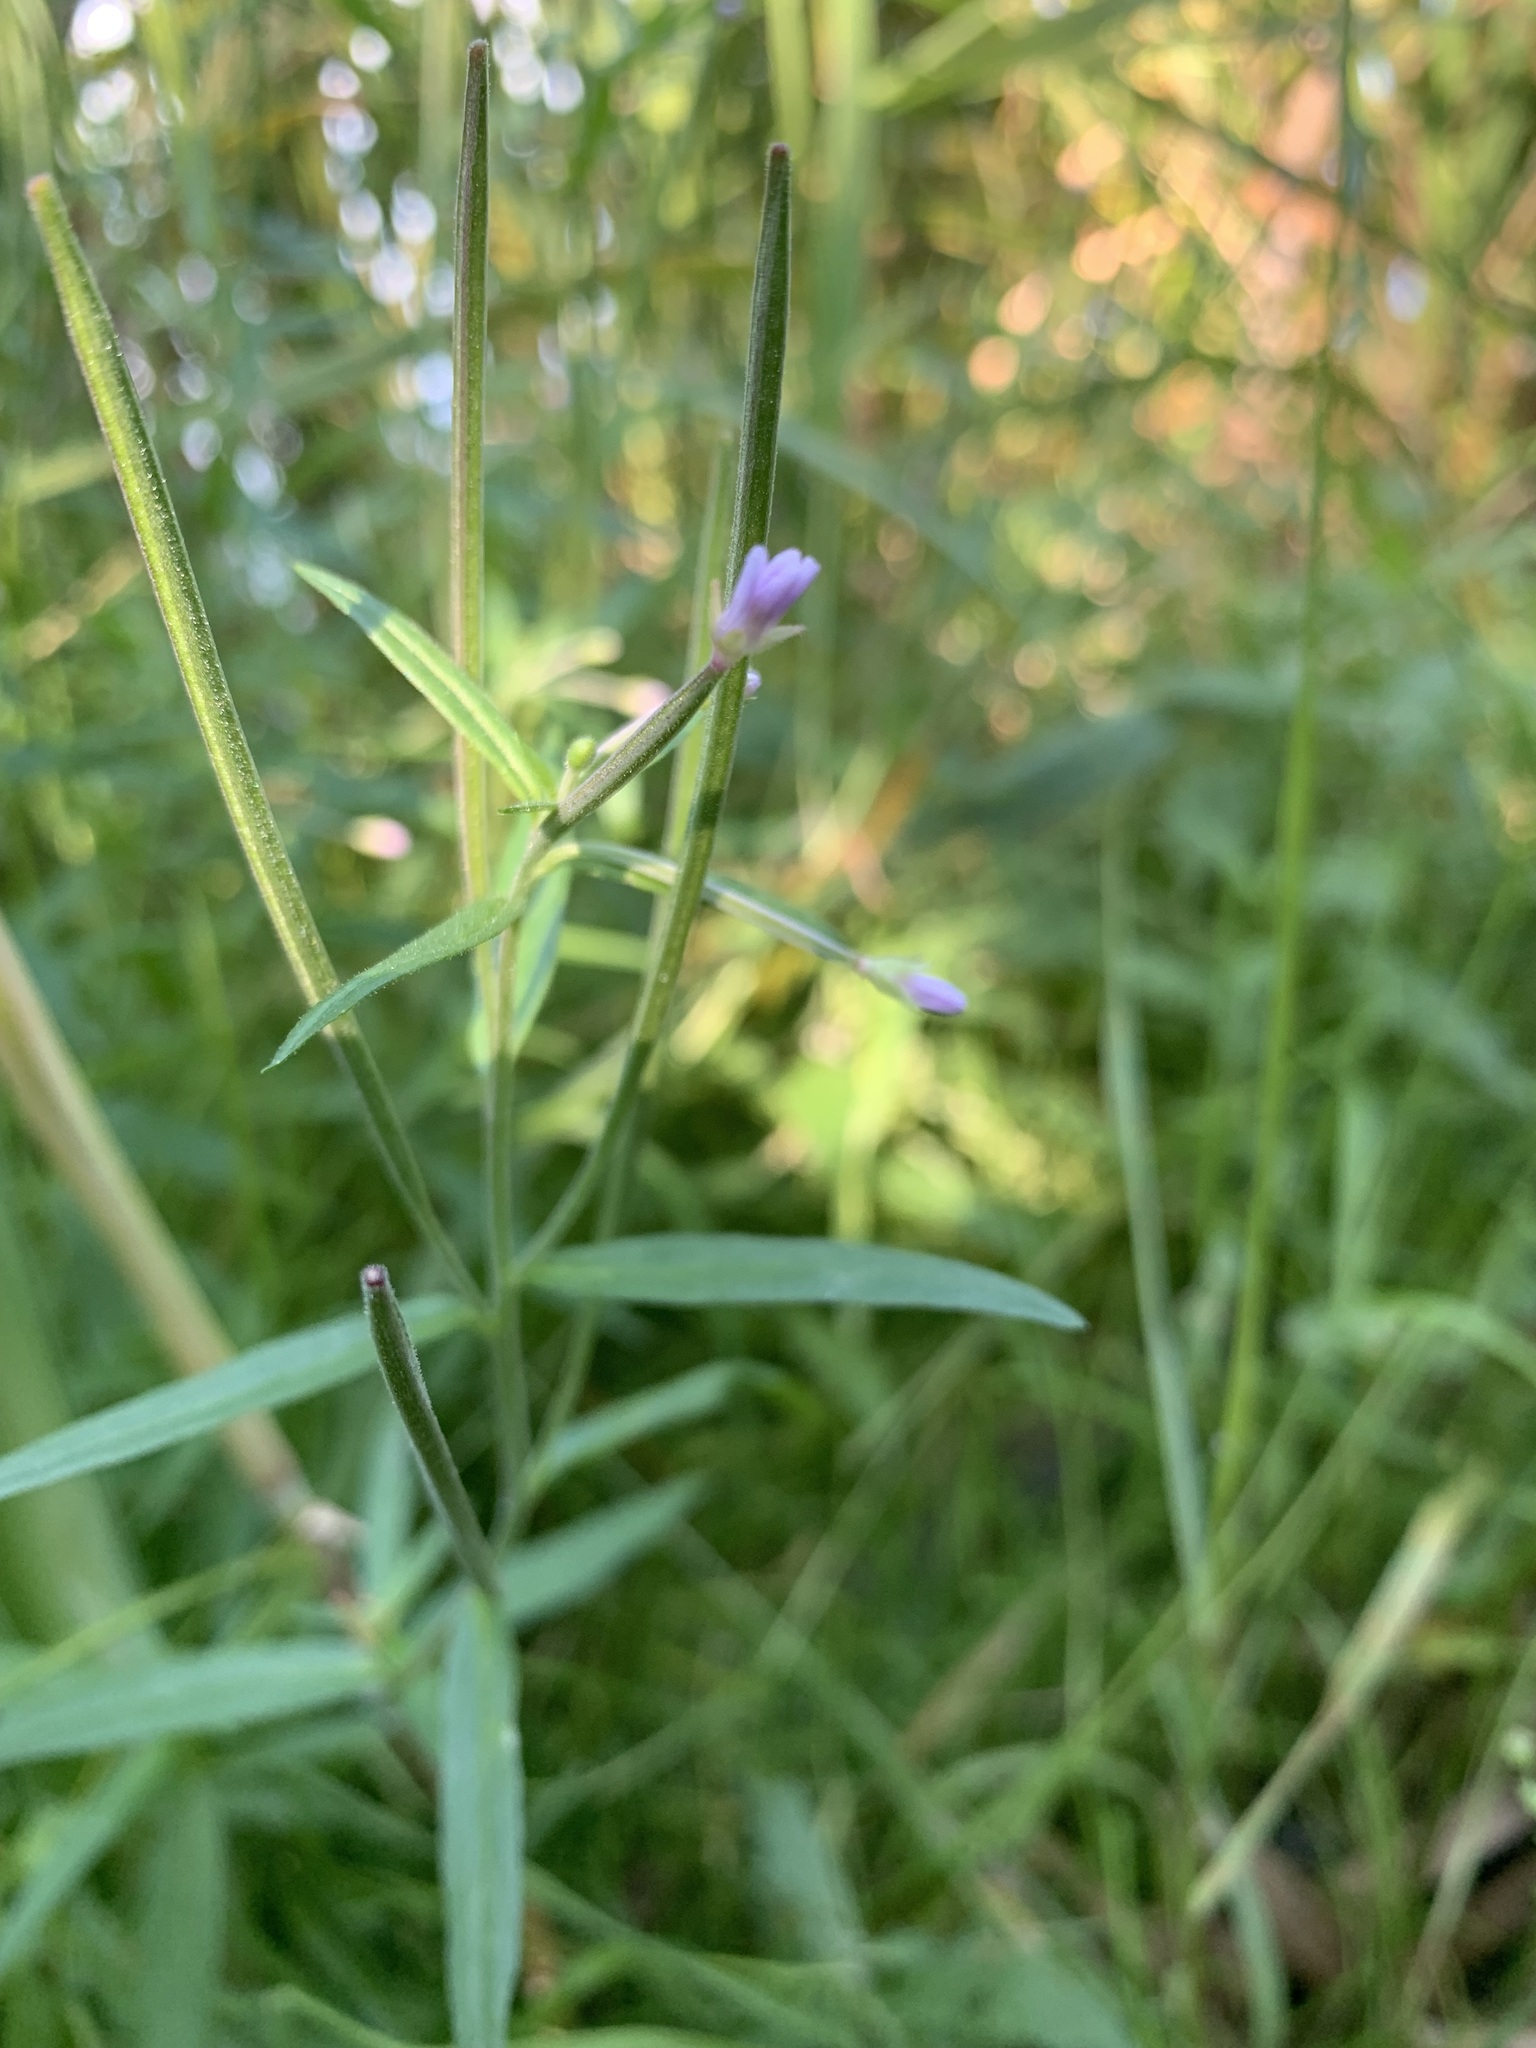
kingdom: Plantae
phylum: Tracheophyta
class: Magnoliopsida
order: Myrtales
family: Onagraceae
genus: Epilobium
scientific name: Epilobium palustre
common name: Marsh willowherb
